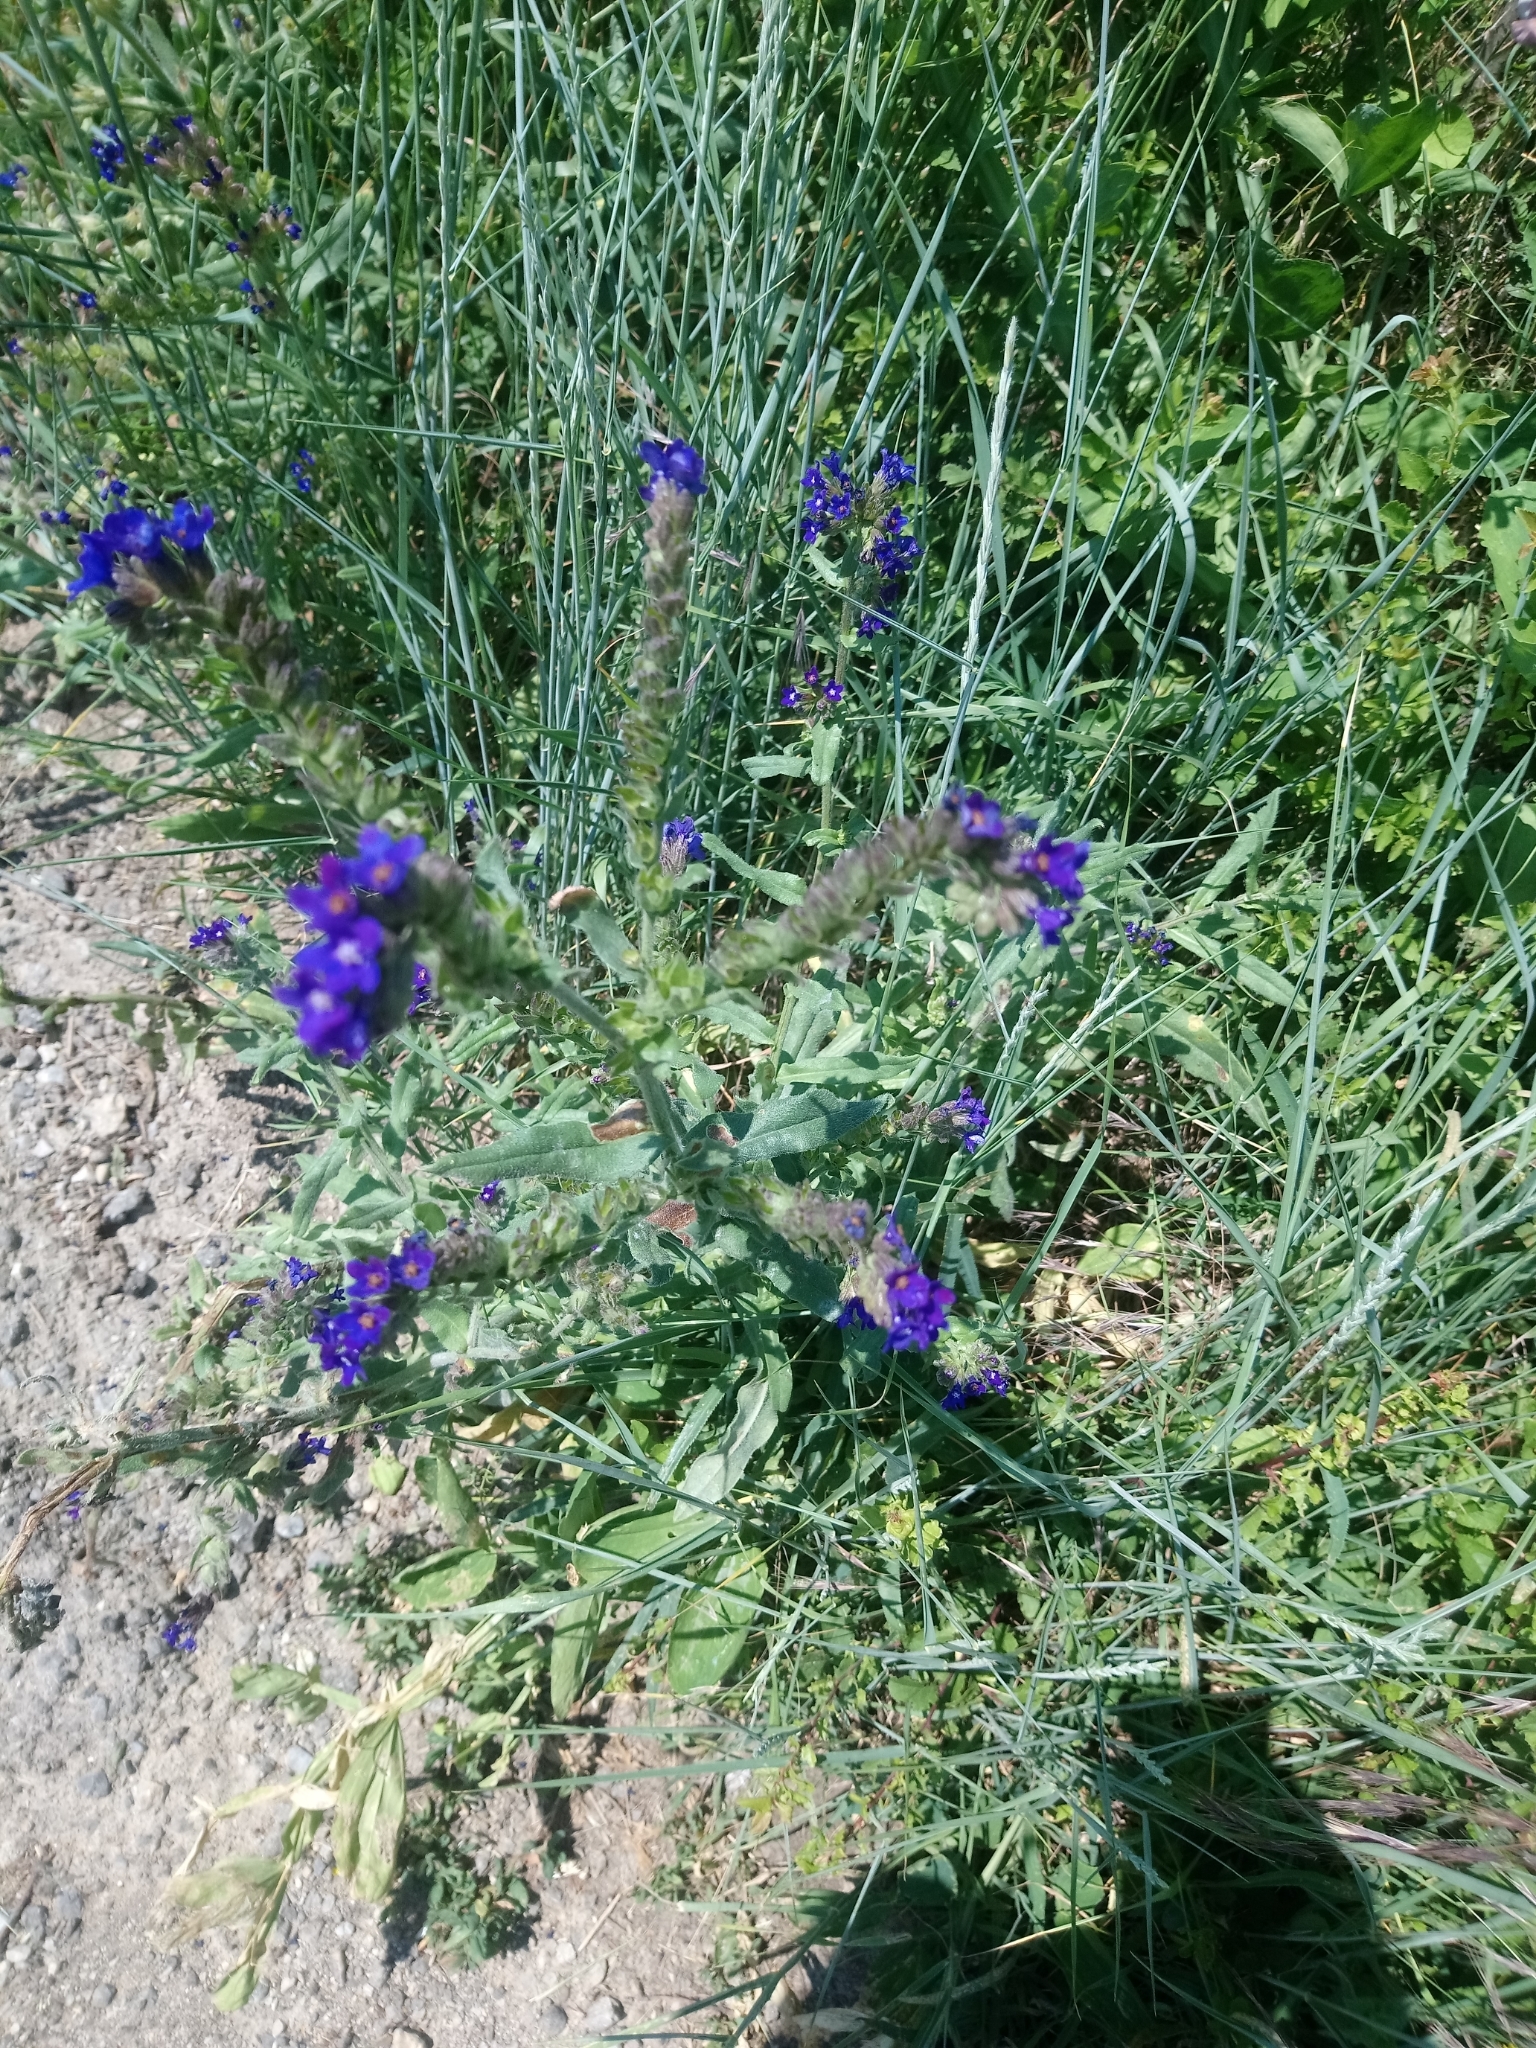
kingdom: Plantae
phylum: Tracheophyta
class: Magnoliopsida
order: Boraginales
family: Boraginaceae
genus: Anchusa
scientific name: Anchusa officinalis
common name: Alkanet
